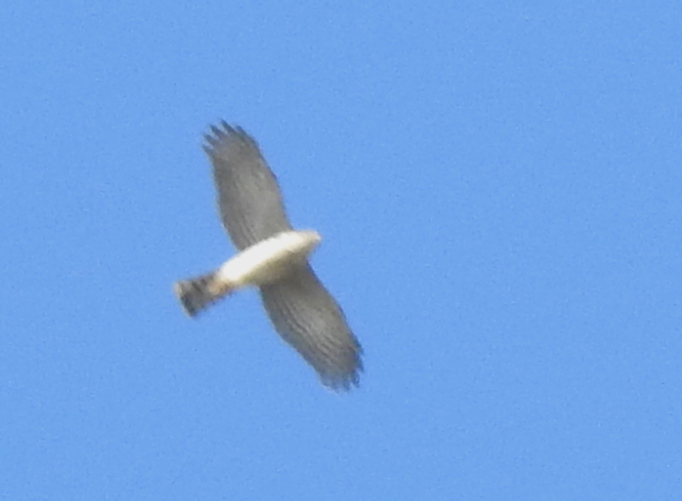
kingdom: Animalia
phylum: Chordata
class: Aves
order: Accipitriformes
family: Accipitridae
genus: Accipiter
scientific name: Accipiter striatus
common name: Sharp-shinned hawk
